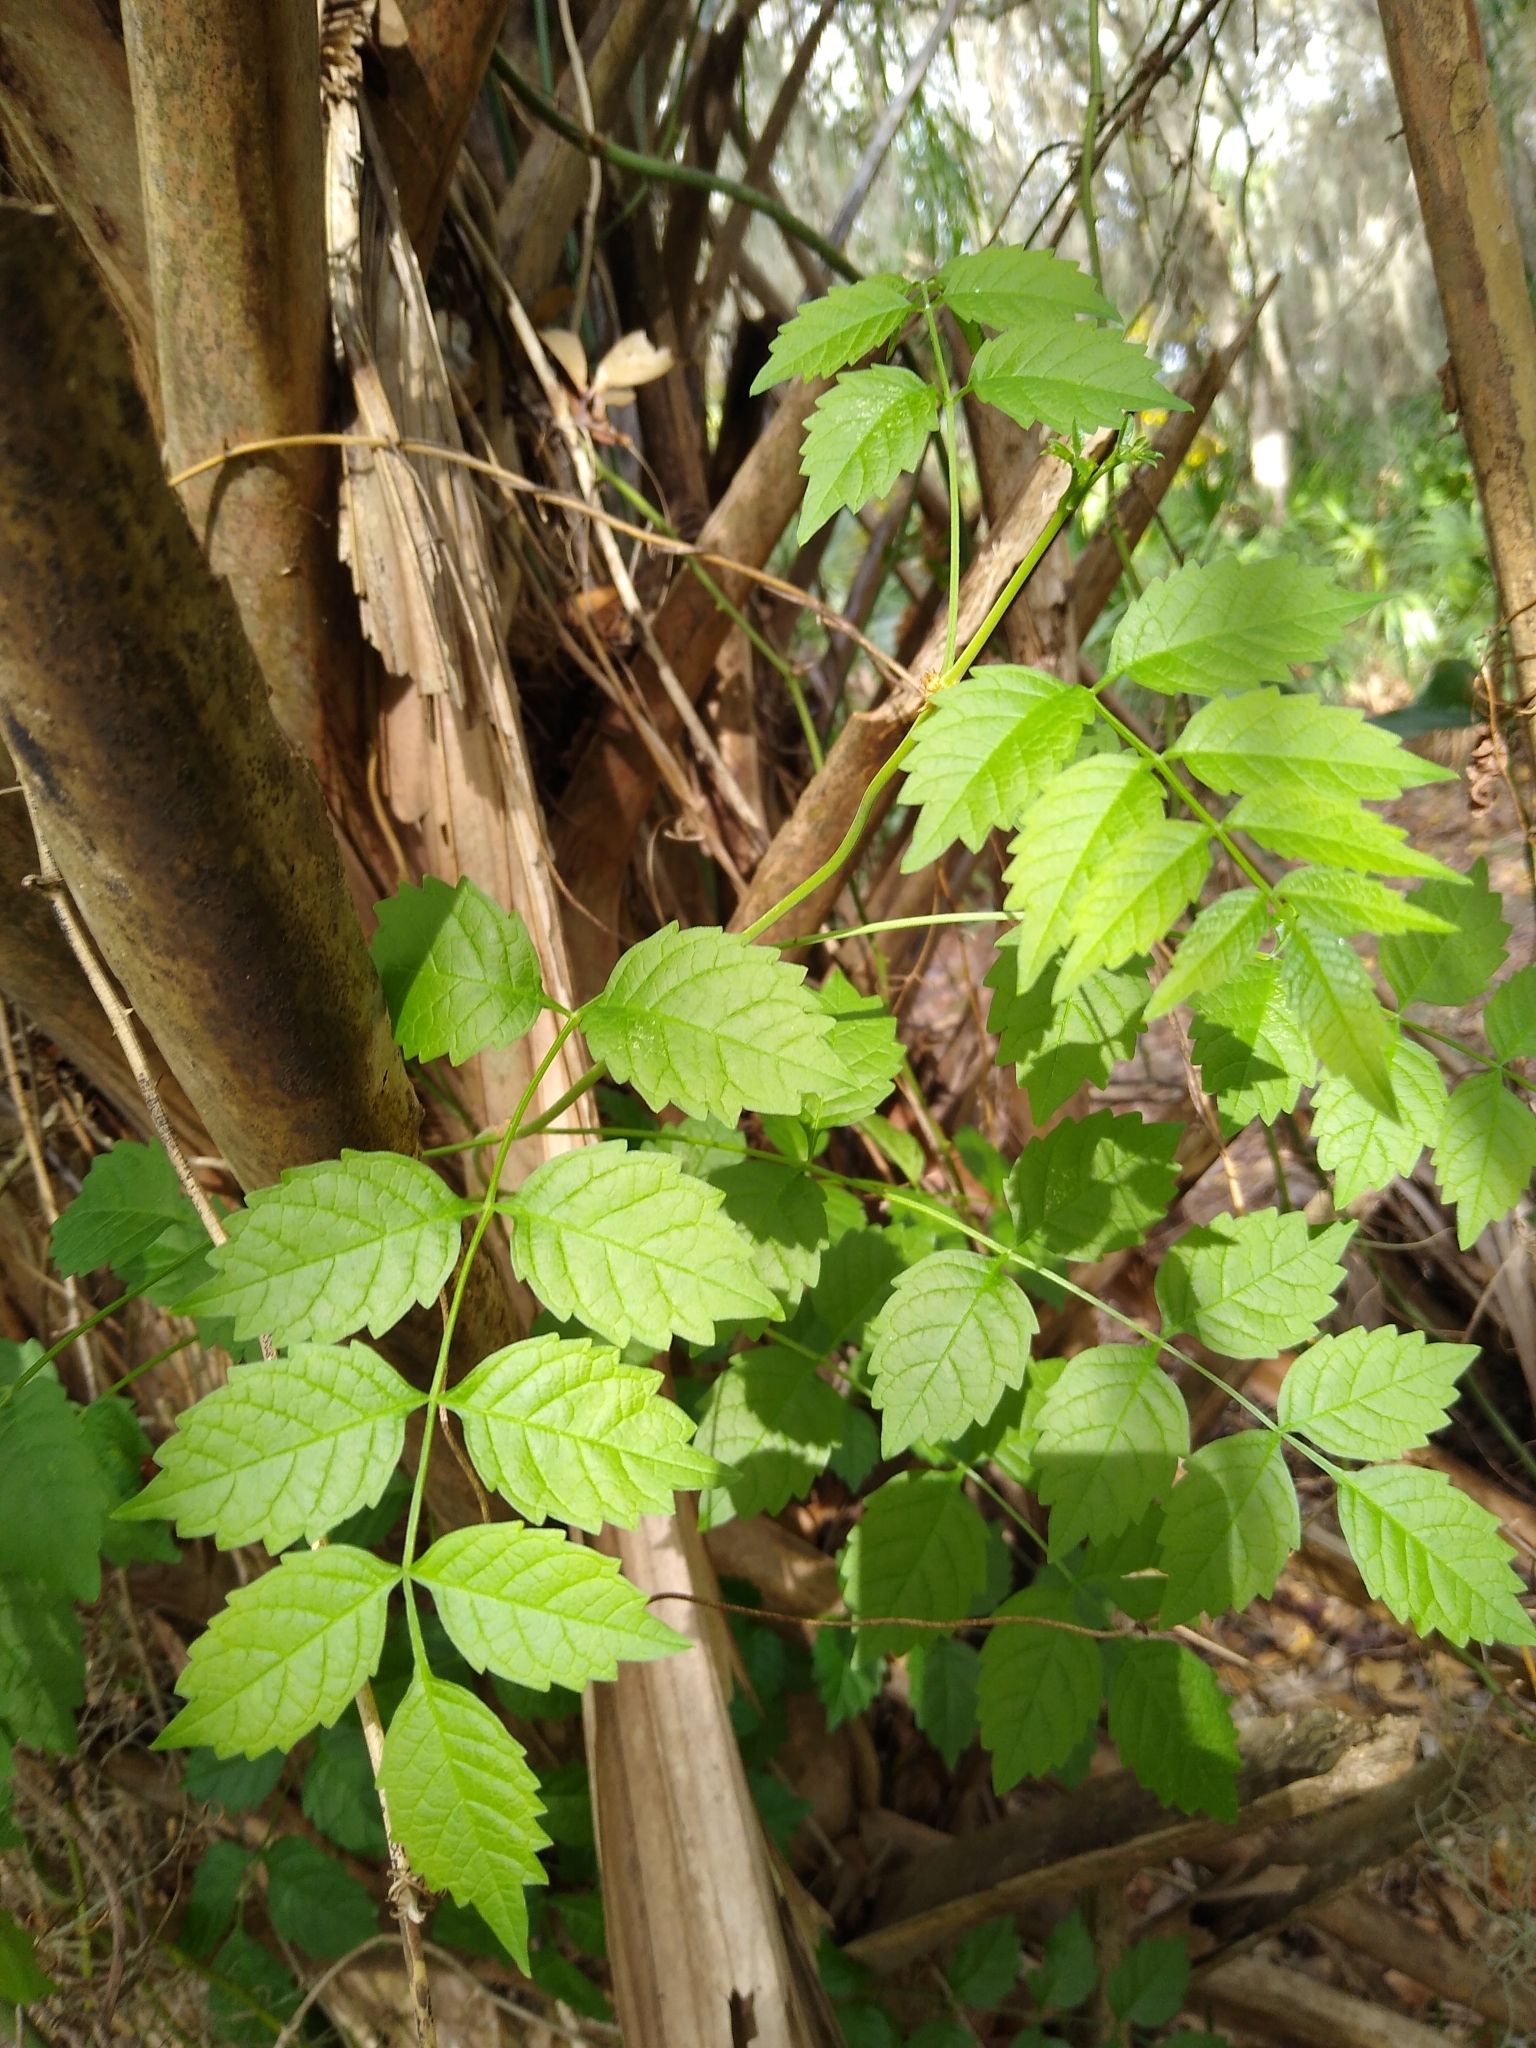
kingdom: Plantae
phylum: Tracheophyta
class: Magnoliopsida
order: Lamiales
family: Bignoniaceae
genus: Campsis
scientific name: Campsis radicans
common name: Trumpet-creeper
